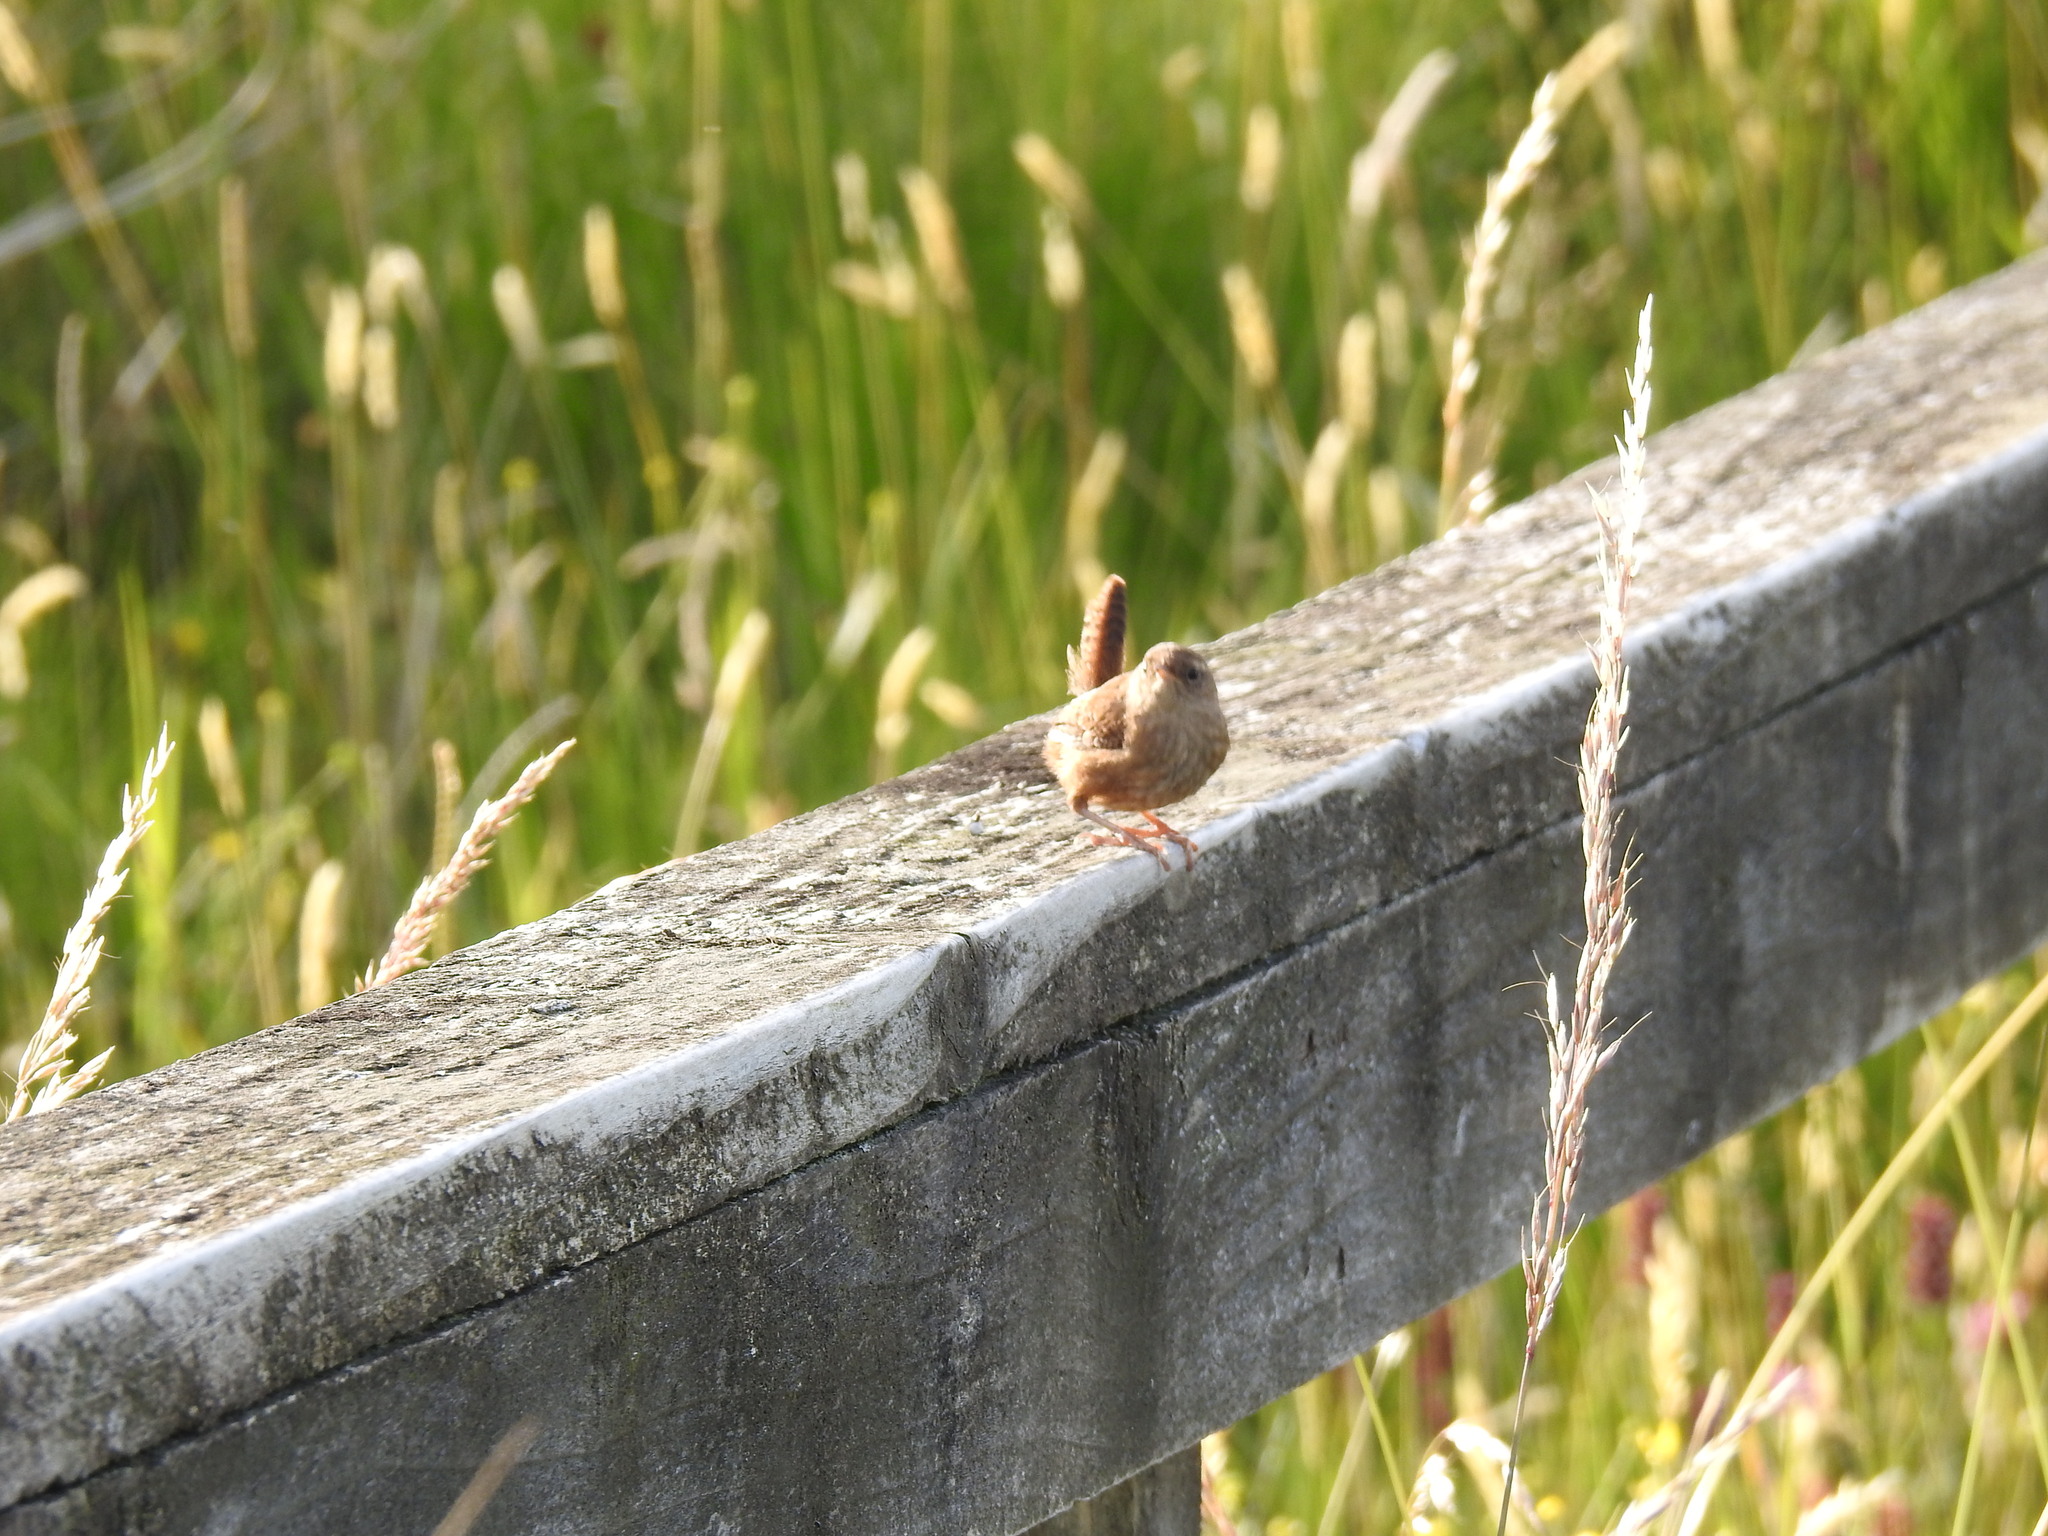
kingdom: Animalia
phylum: Chordata
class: Aves
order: Passeriformes
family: Troglodytidae
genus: Troglodytes
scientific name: Troglodytes troglodytes
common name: Eurasian wren
